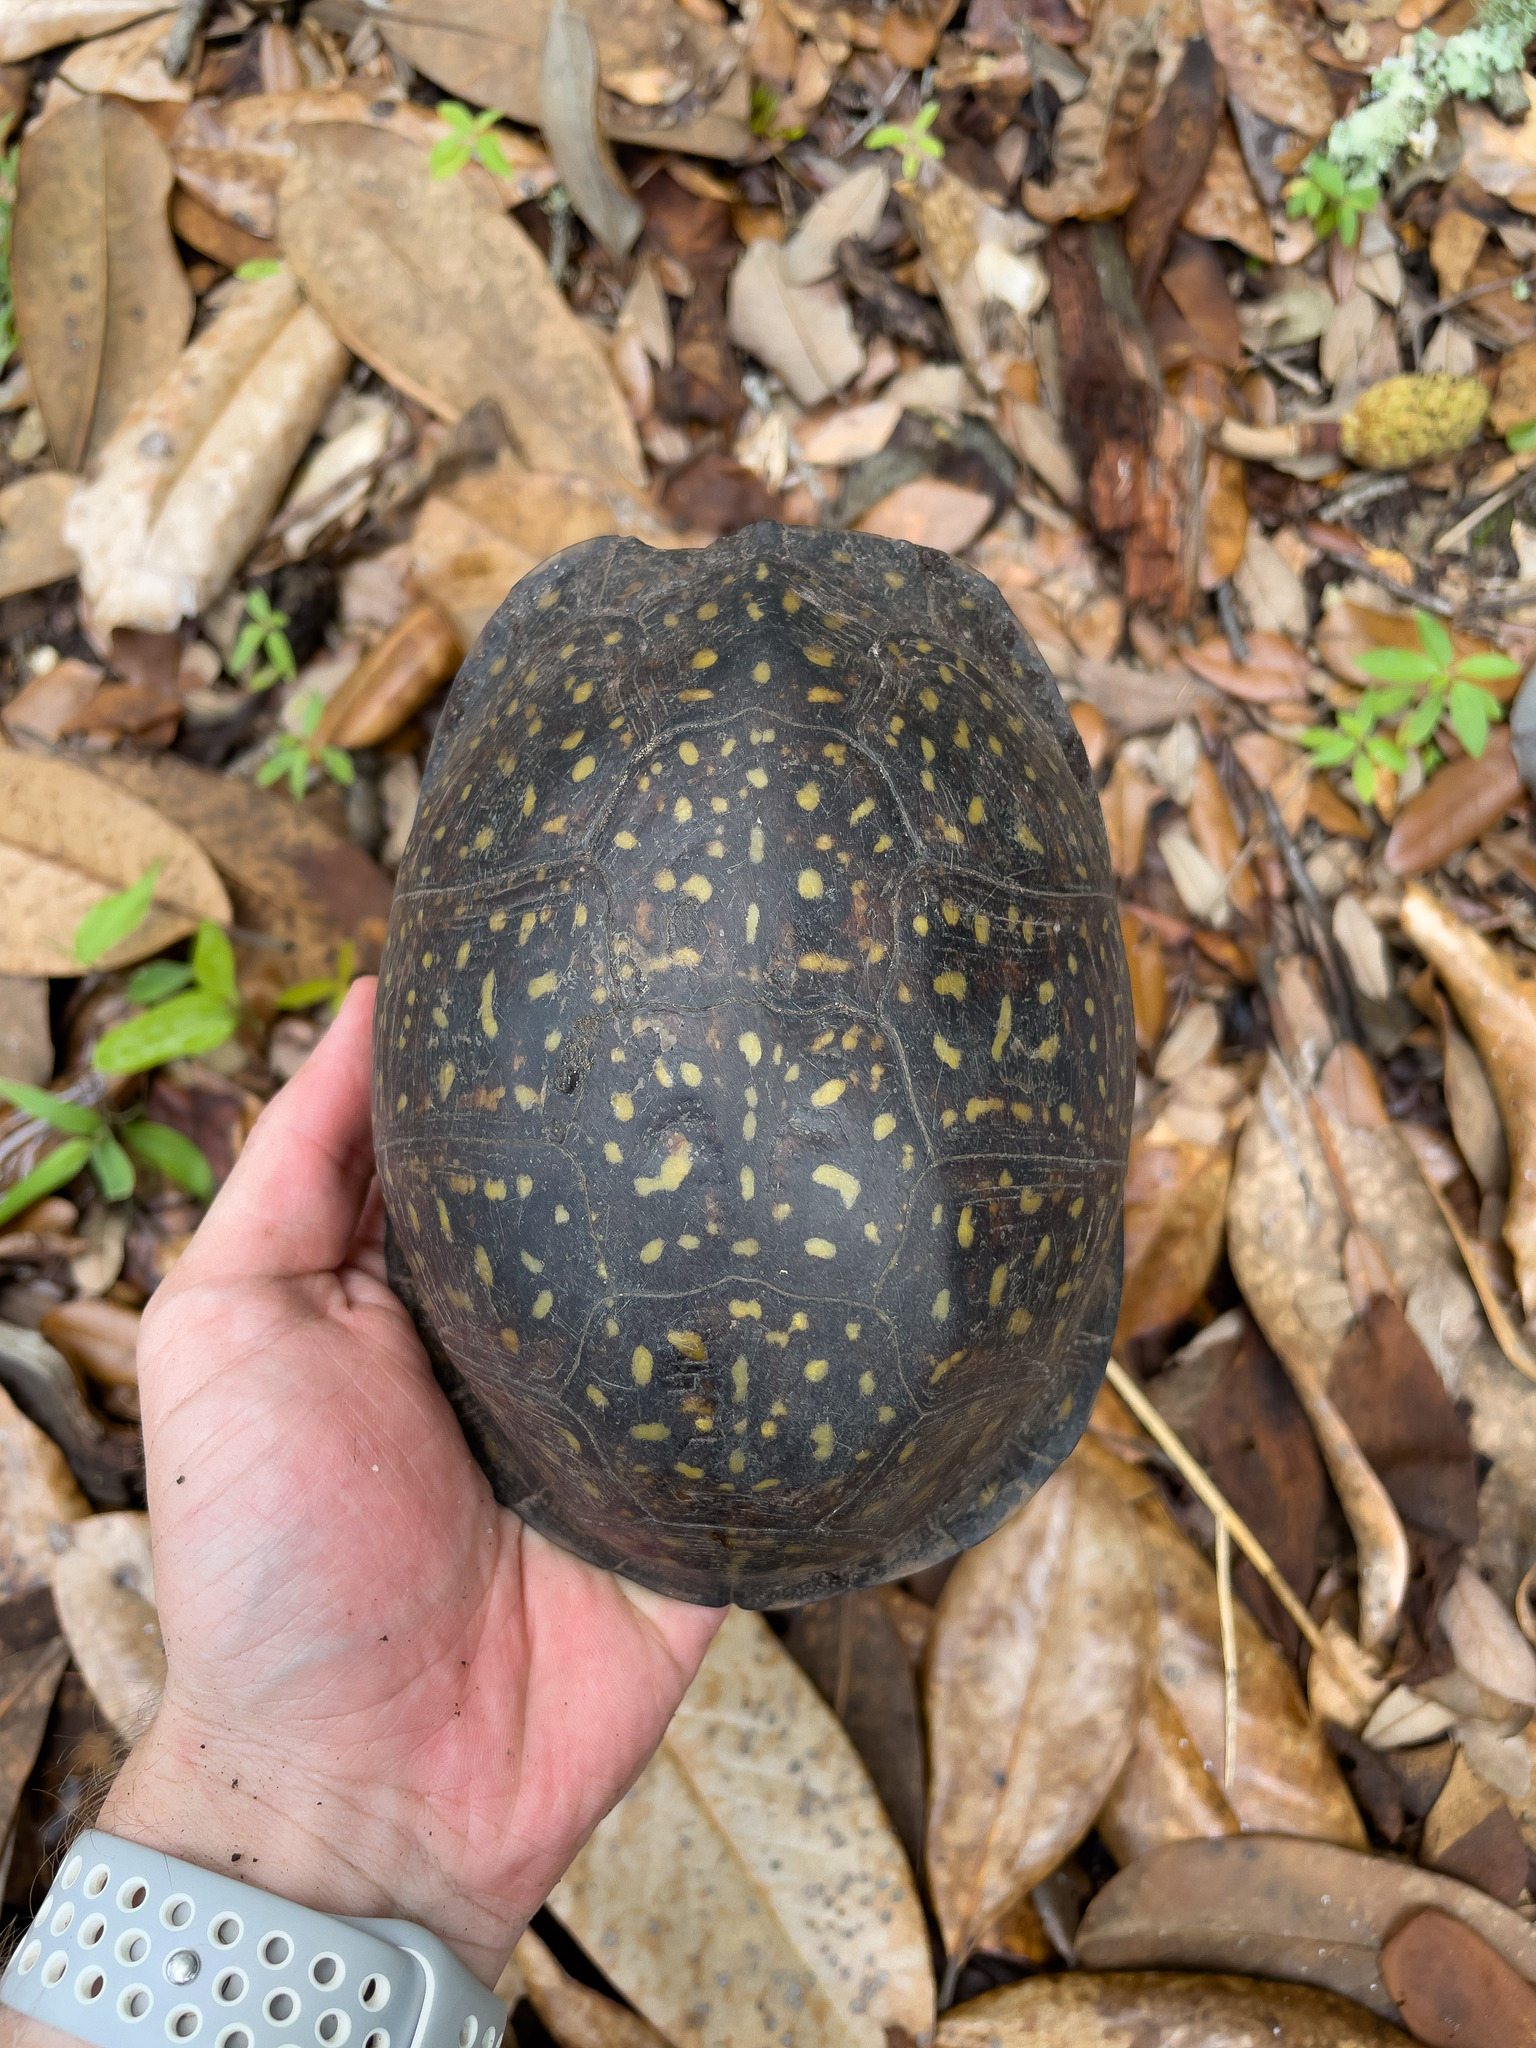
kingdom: Animalia
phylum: Chordata
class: Testudines
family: Emydidae
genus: Terrapene
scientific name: Terrapene carolina
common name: Common box turtle
